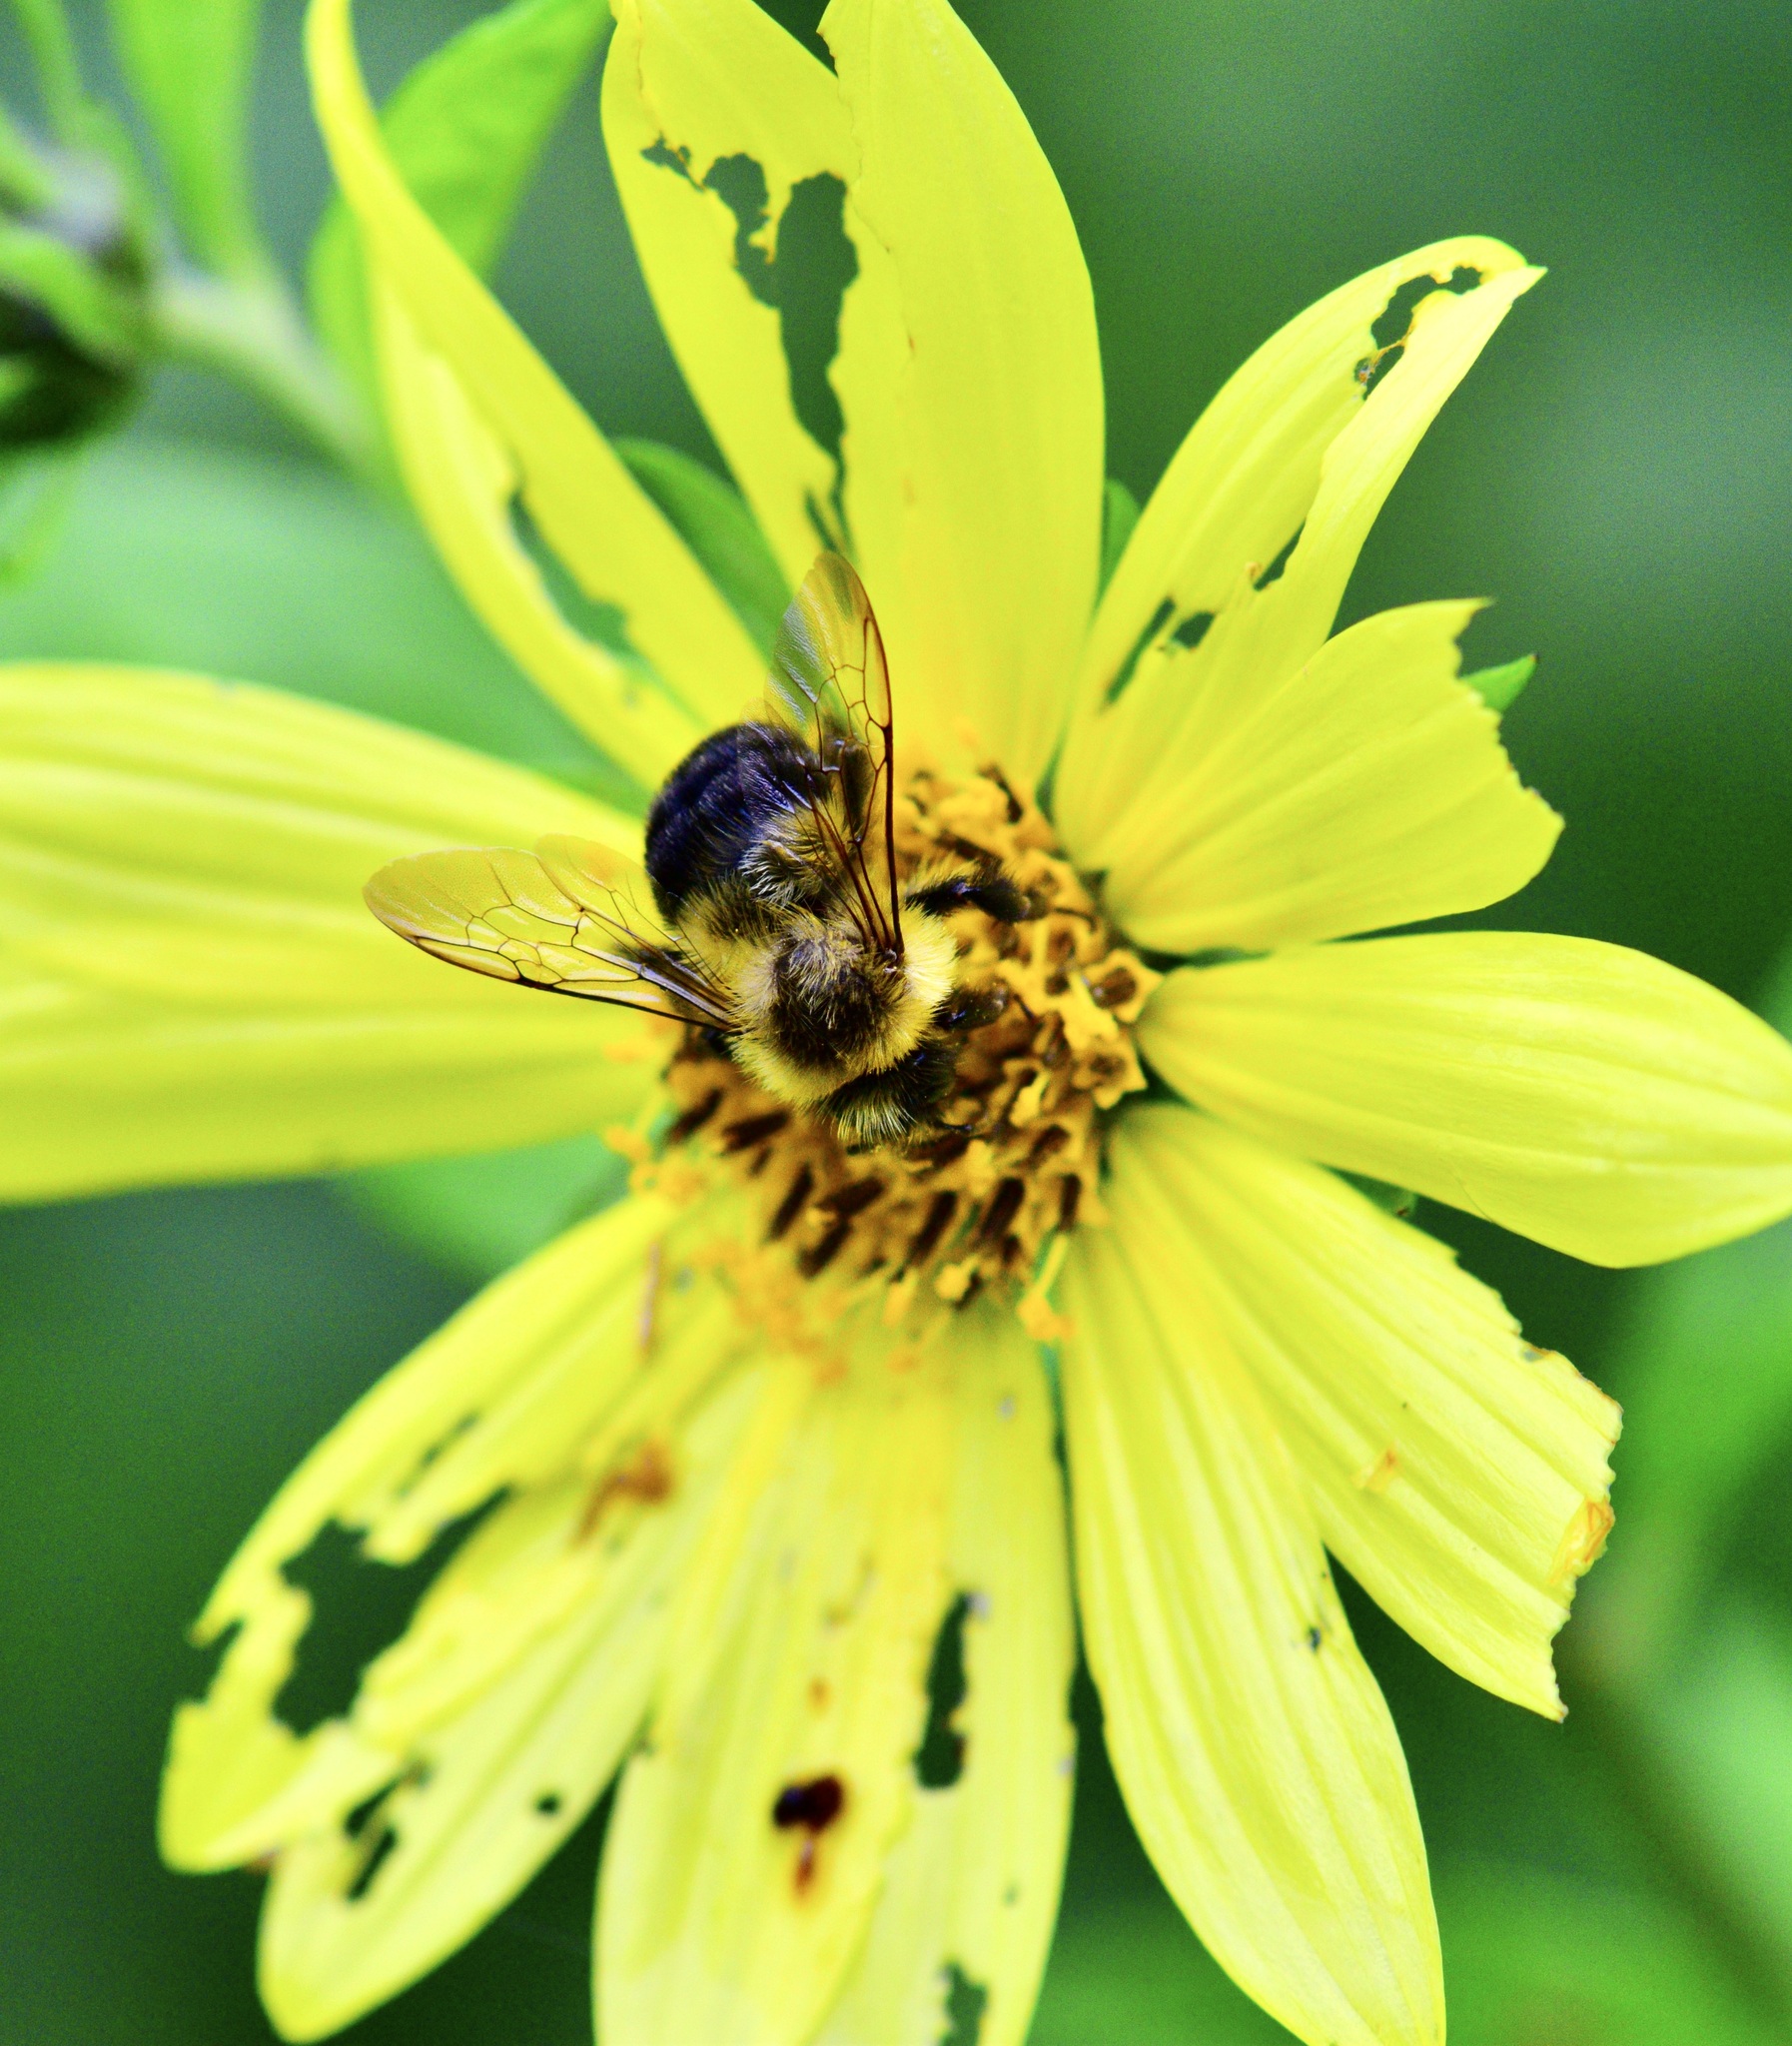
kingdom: Animalia
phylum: Arthropoda
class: Insecta
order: Hymenoptera
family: Apidae
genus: Bombus
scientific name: Bombus impatiens
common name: Common eastern bumble bee
